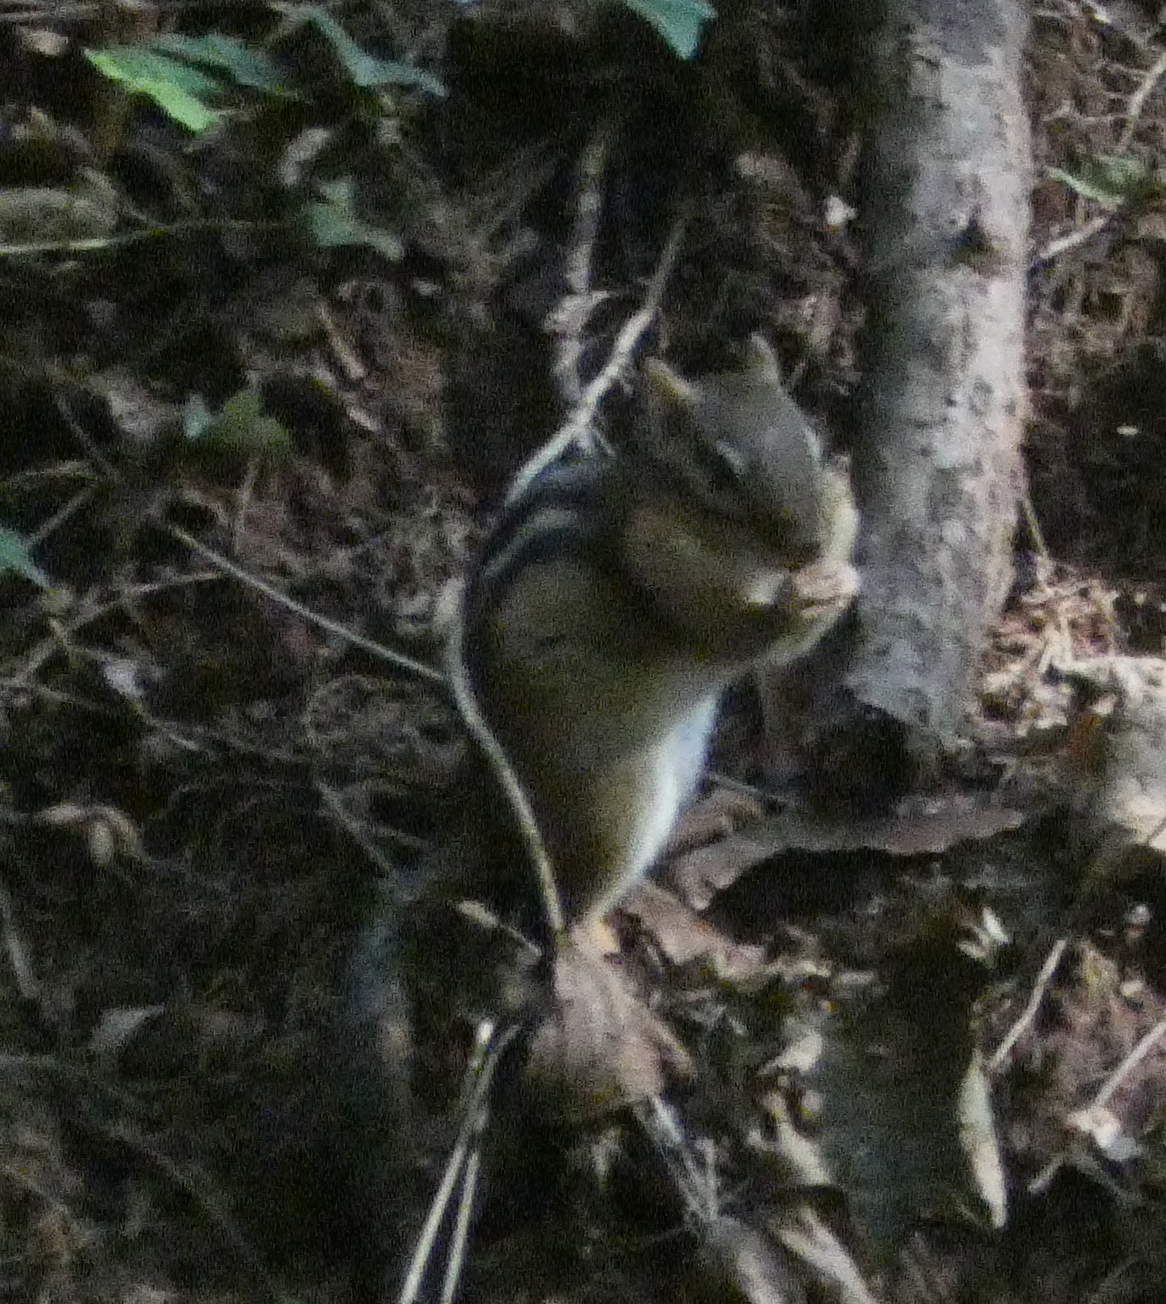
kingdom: Animalia
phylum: Chordata
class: Mammalia
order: Rodentia
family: Sciuridae
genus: Tamias
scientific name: Tamias striatus
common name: Eastern chipmunk
